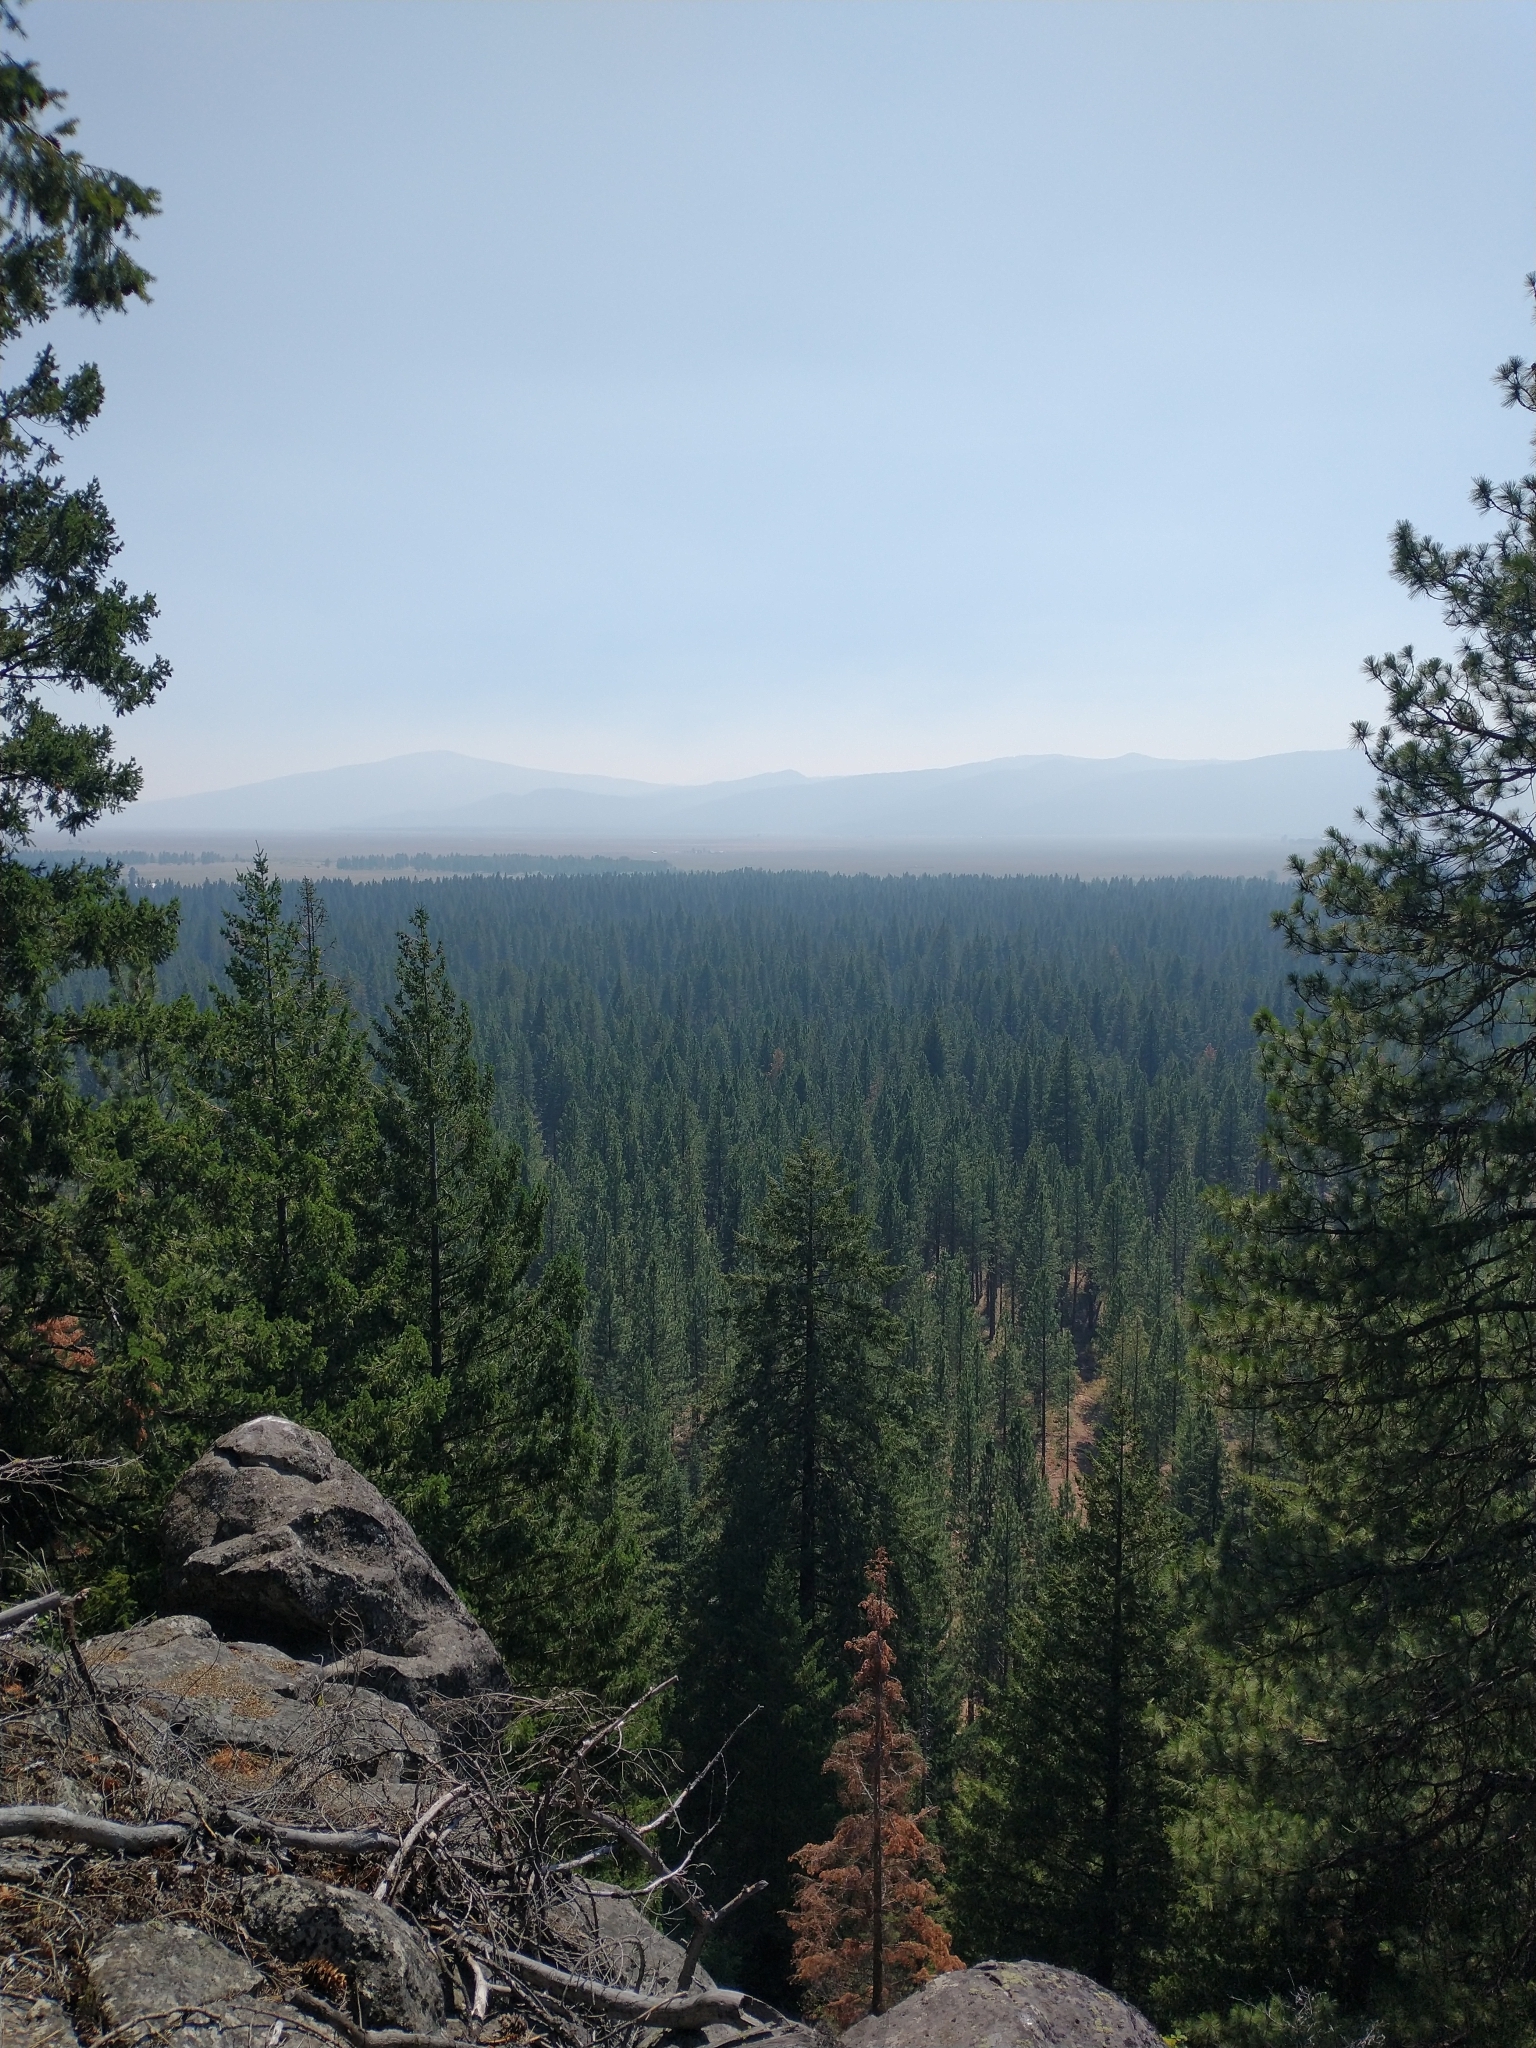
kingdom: Plantae
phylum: Tracheophyta
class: Pinopsida
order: Pinales
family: Pinaceae
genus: Pseudotsuga
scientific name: Pseudotsuga menziesii
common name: Douglas fir
